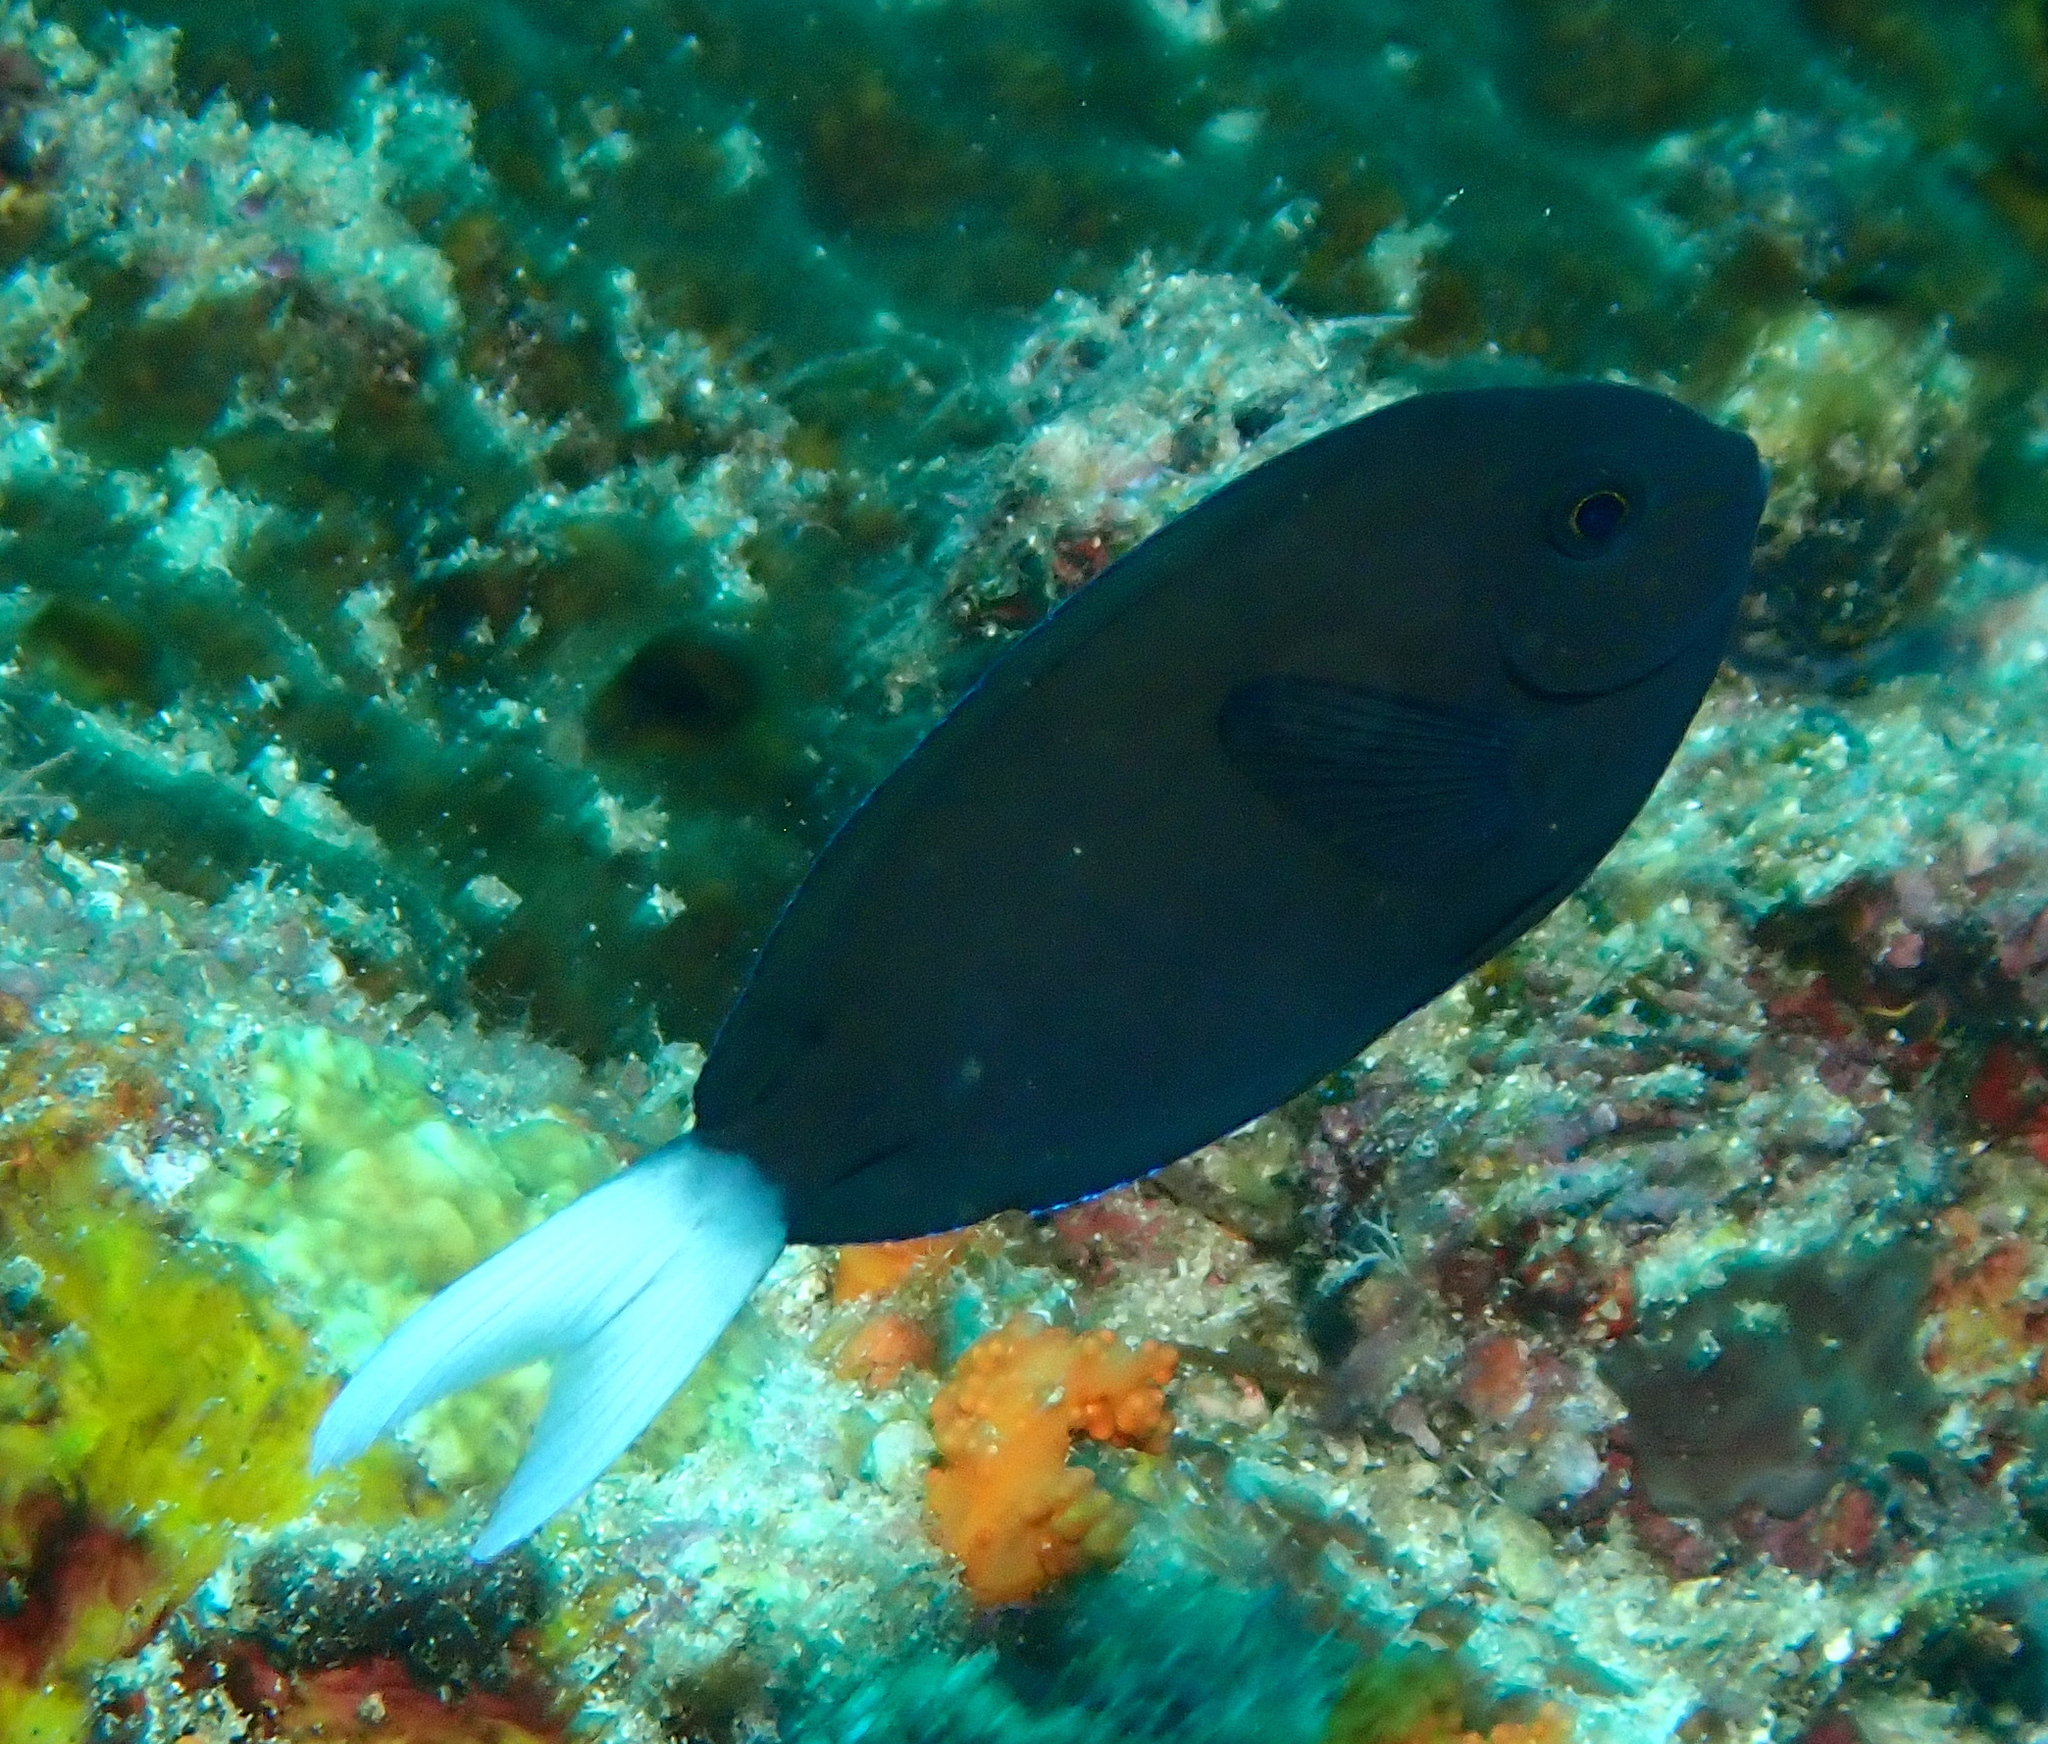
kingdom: Animalia
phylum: Chordata
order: Perciformes
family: Acanthuridae
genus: Acanthurus
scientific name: Acanthurus thompsoni
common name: Chocolate surgeonfish
